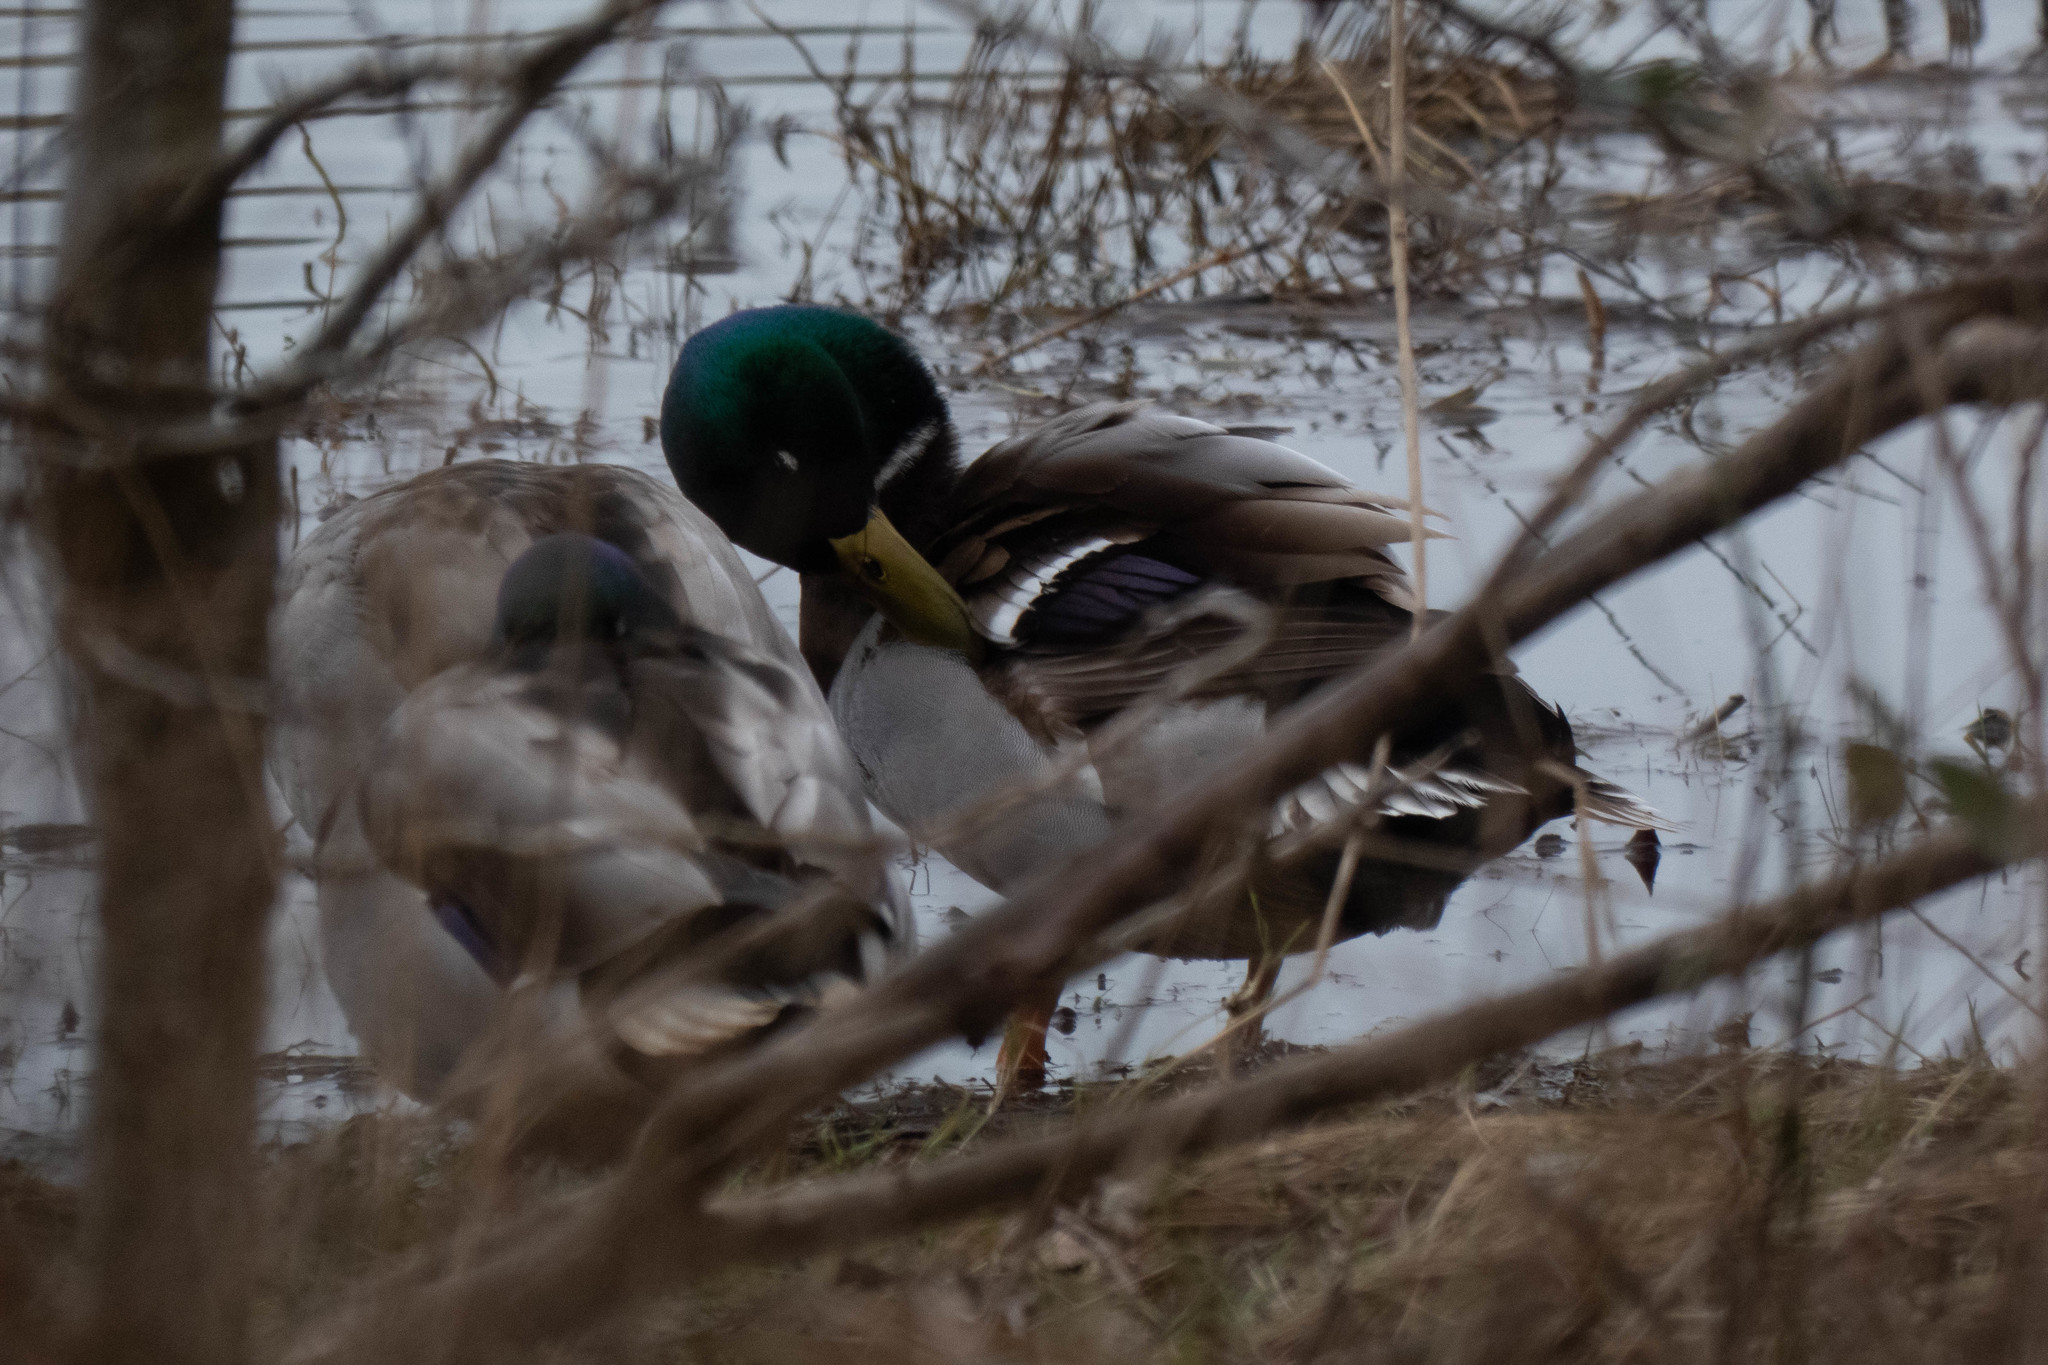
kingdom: Animalia
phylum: Chordata
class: Aves
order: Anseriformes
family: Anatidae
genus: Anas
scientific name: Anas platyrhynchos
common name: Mallard
